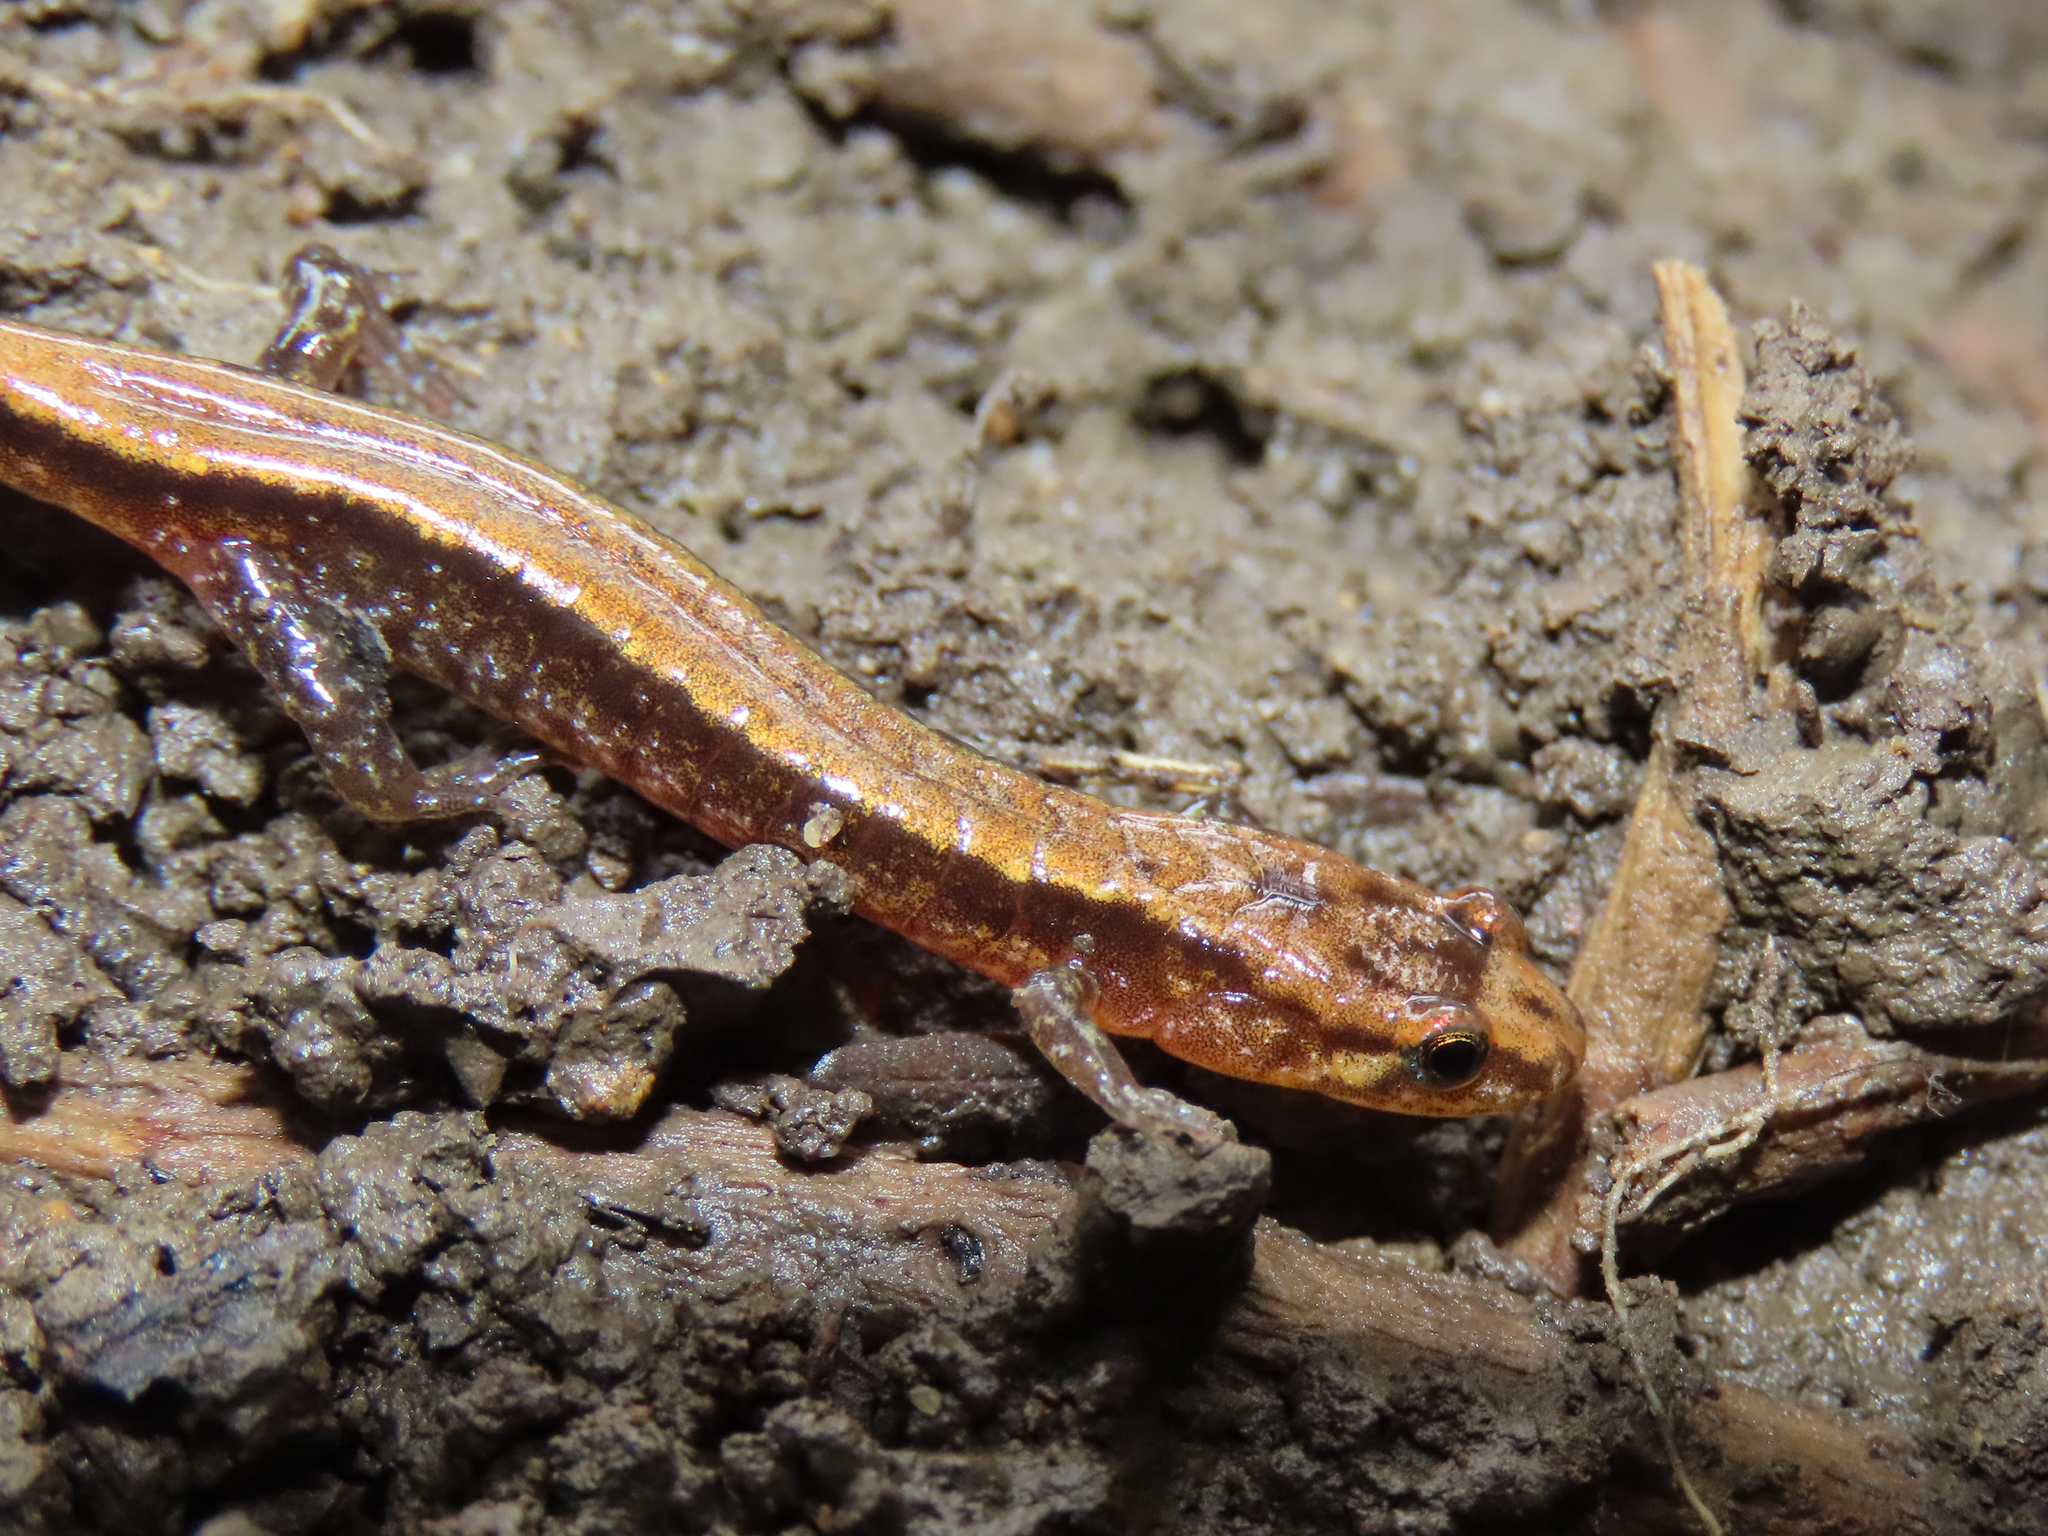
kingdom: Animalia
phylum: Chordata
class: Amphibia
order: Caudata
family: Plethodontidae
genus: Desmognathus
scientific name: Desmognathus ochrophaeus
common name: Allegheny mountain dusky salamander
